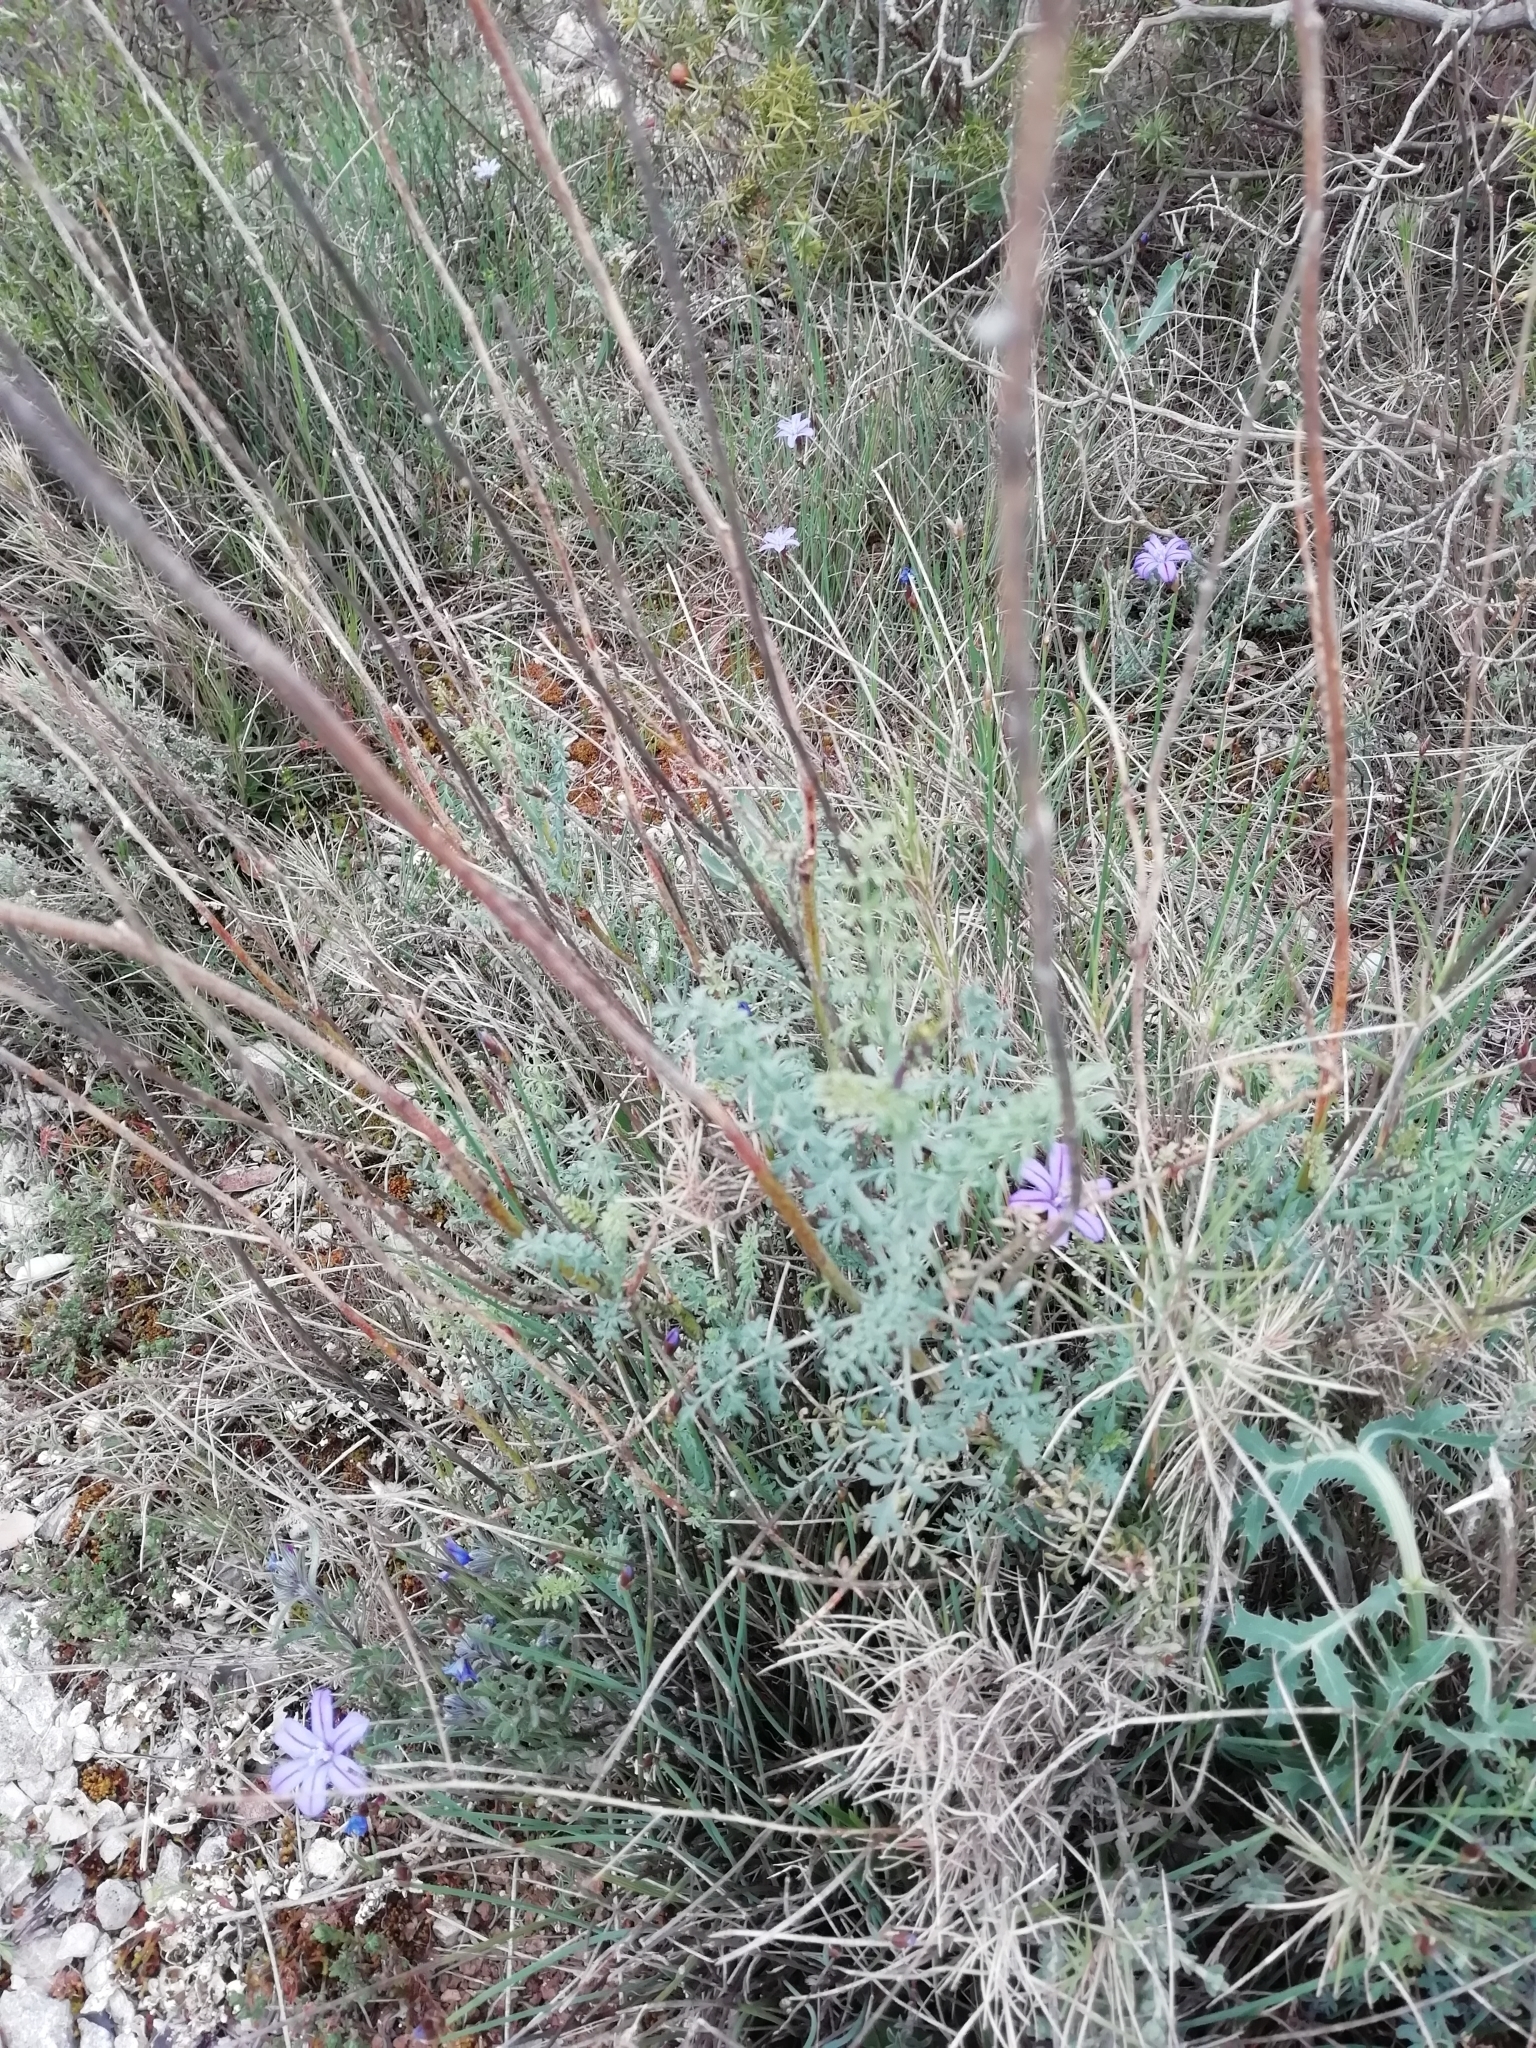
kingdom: Plantae
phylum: Tracheophyta
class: Magnoliopsida
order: Sapindales
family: Rutaceae
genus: Ruta
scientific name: Ruta angustifolia
